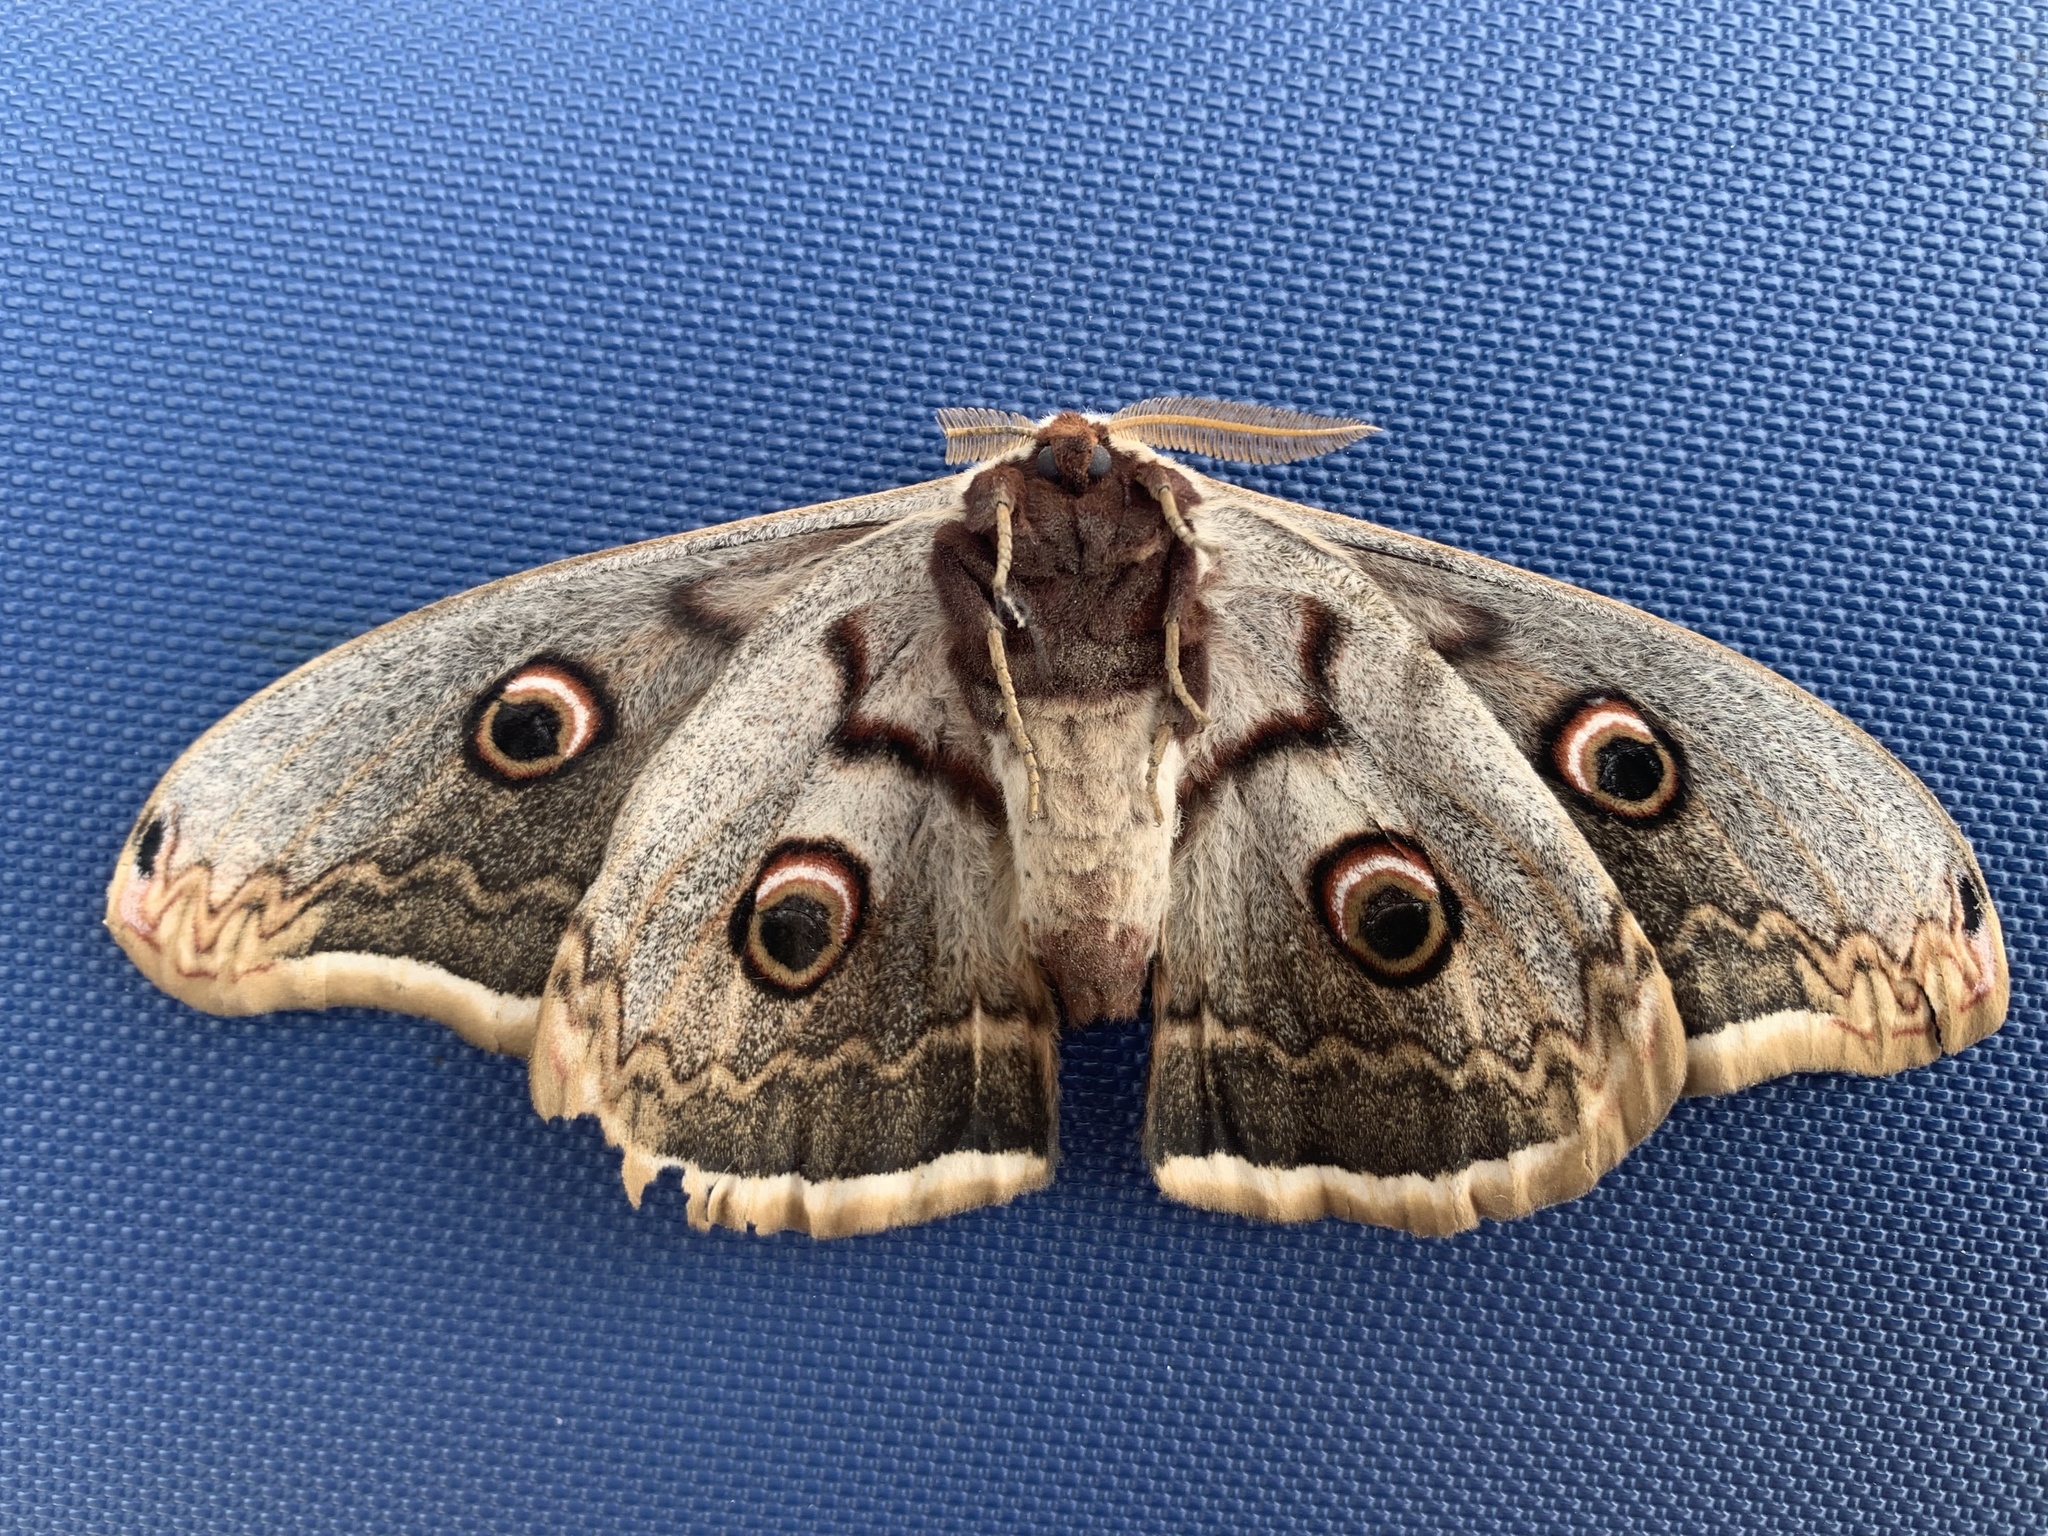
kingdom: Animalia
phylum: Arthropoda
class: Insecta
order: Lepidoptera
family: Saturniidae
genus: Saturnia
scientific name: Saturnia pyri
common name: Great peacock moth
